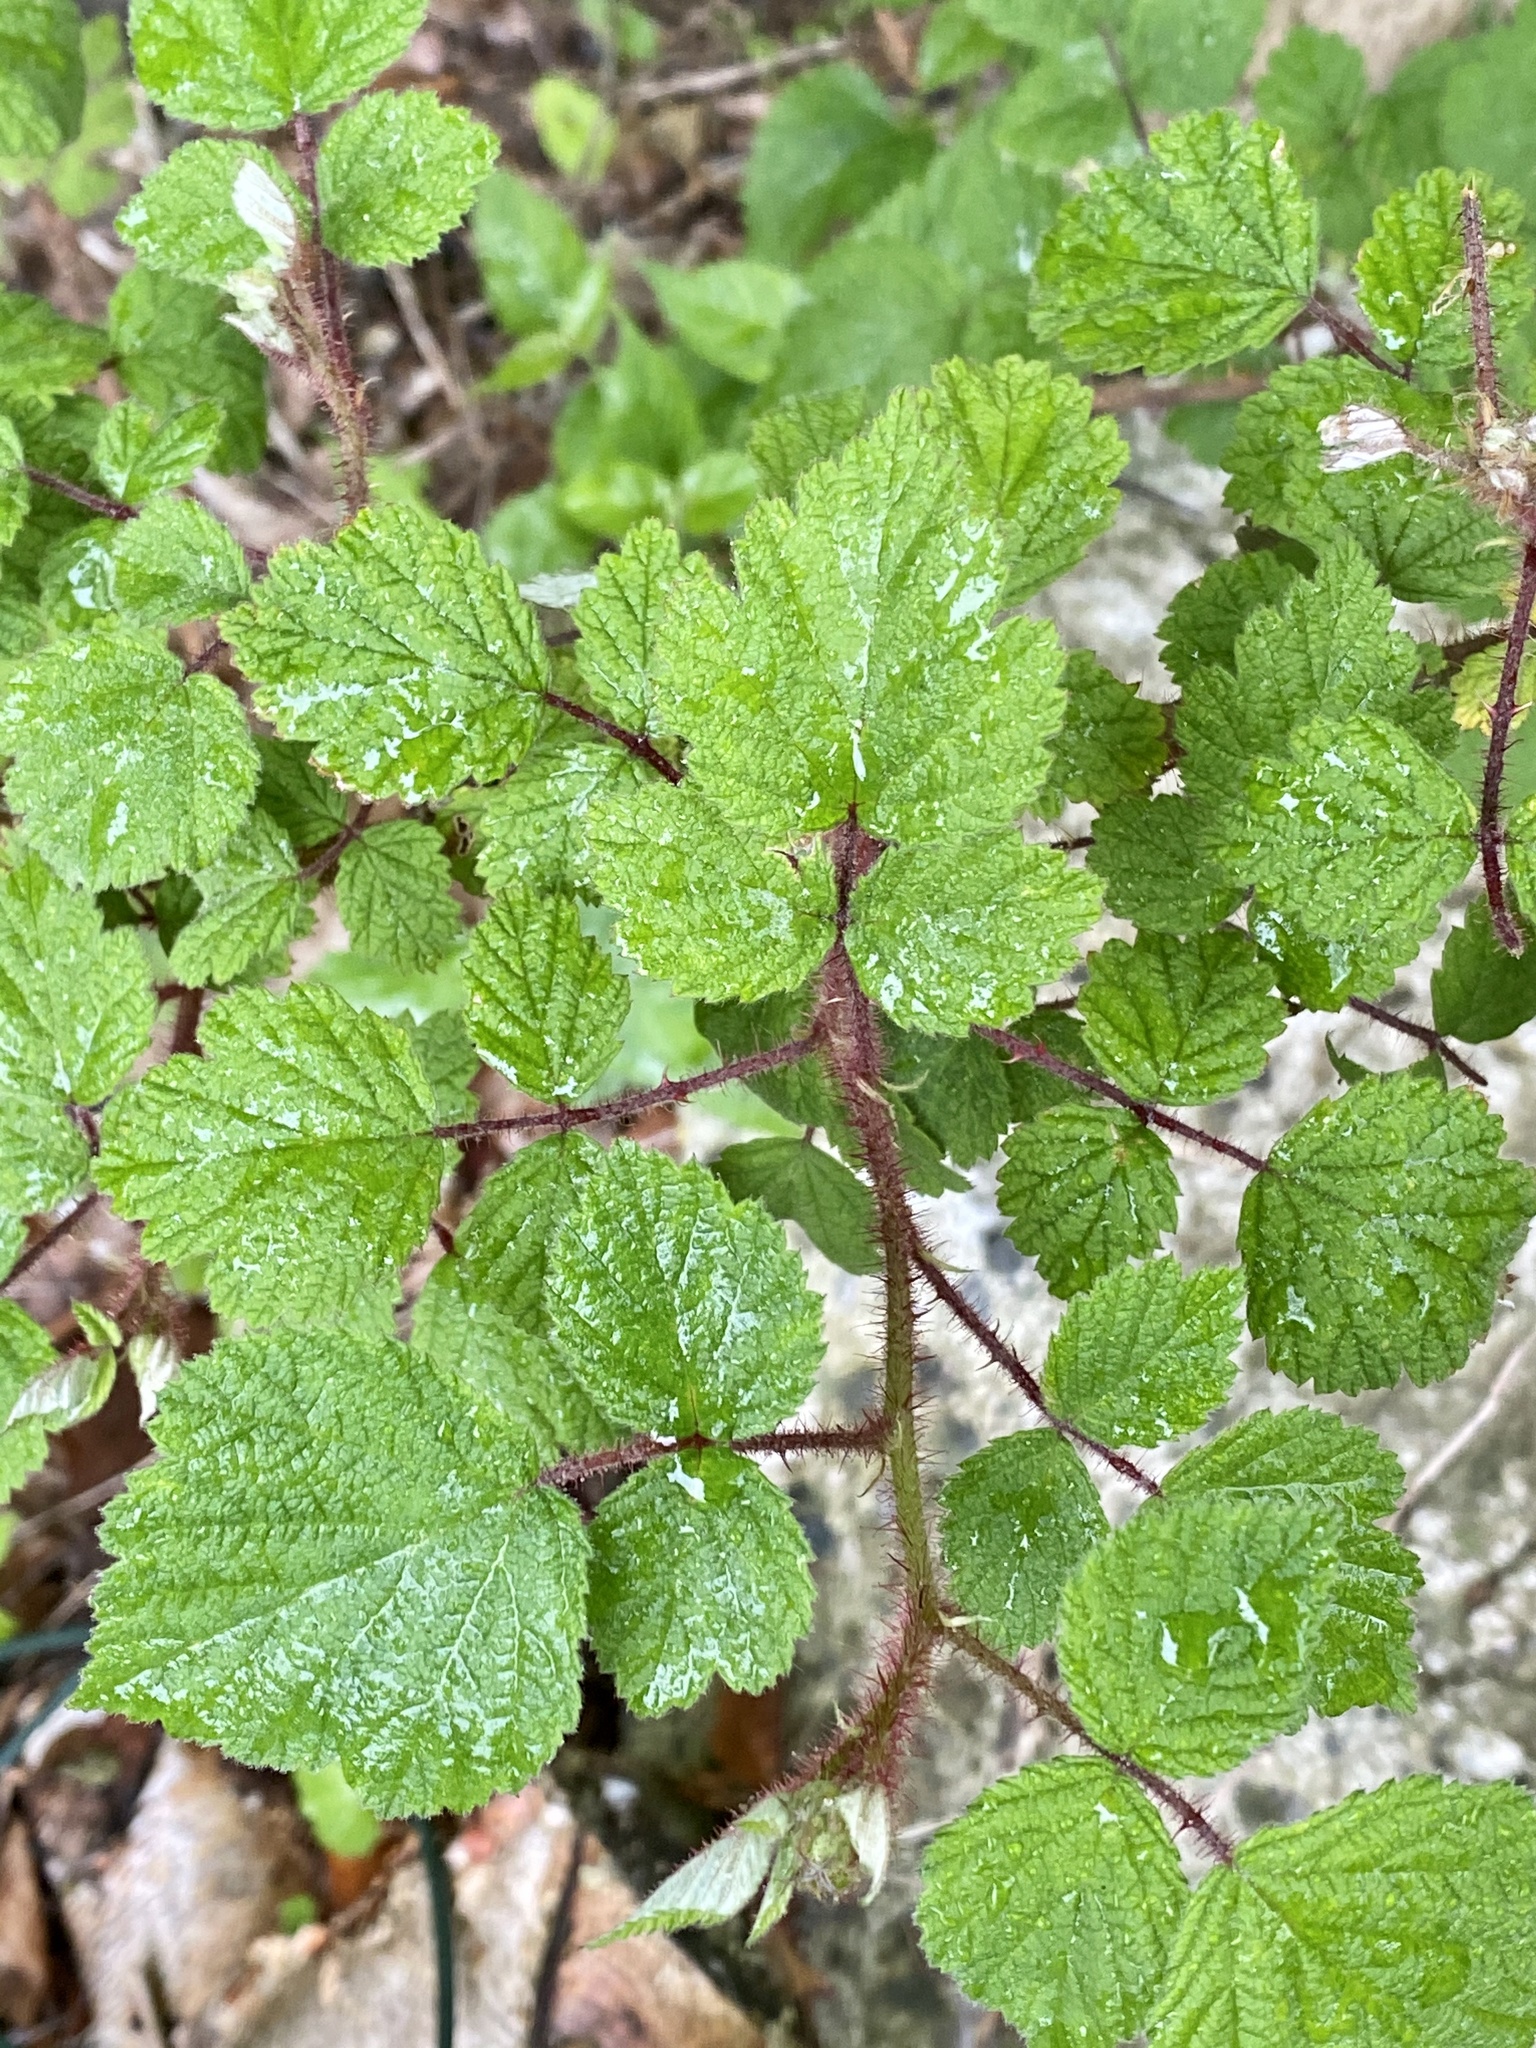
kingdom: Plantae
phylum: Tracheophyta
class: Magnoliopsida
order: Rosales
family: Rosaceae
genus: Rubus
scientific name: Rubus phoenicolasius
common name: Japanese wineberry
